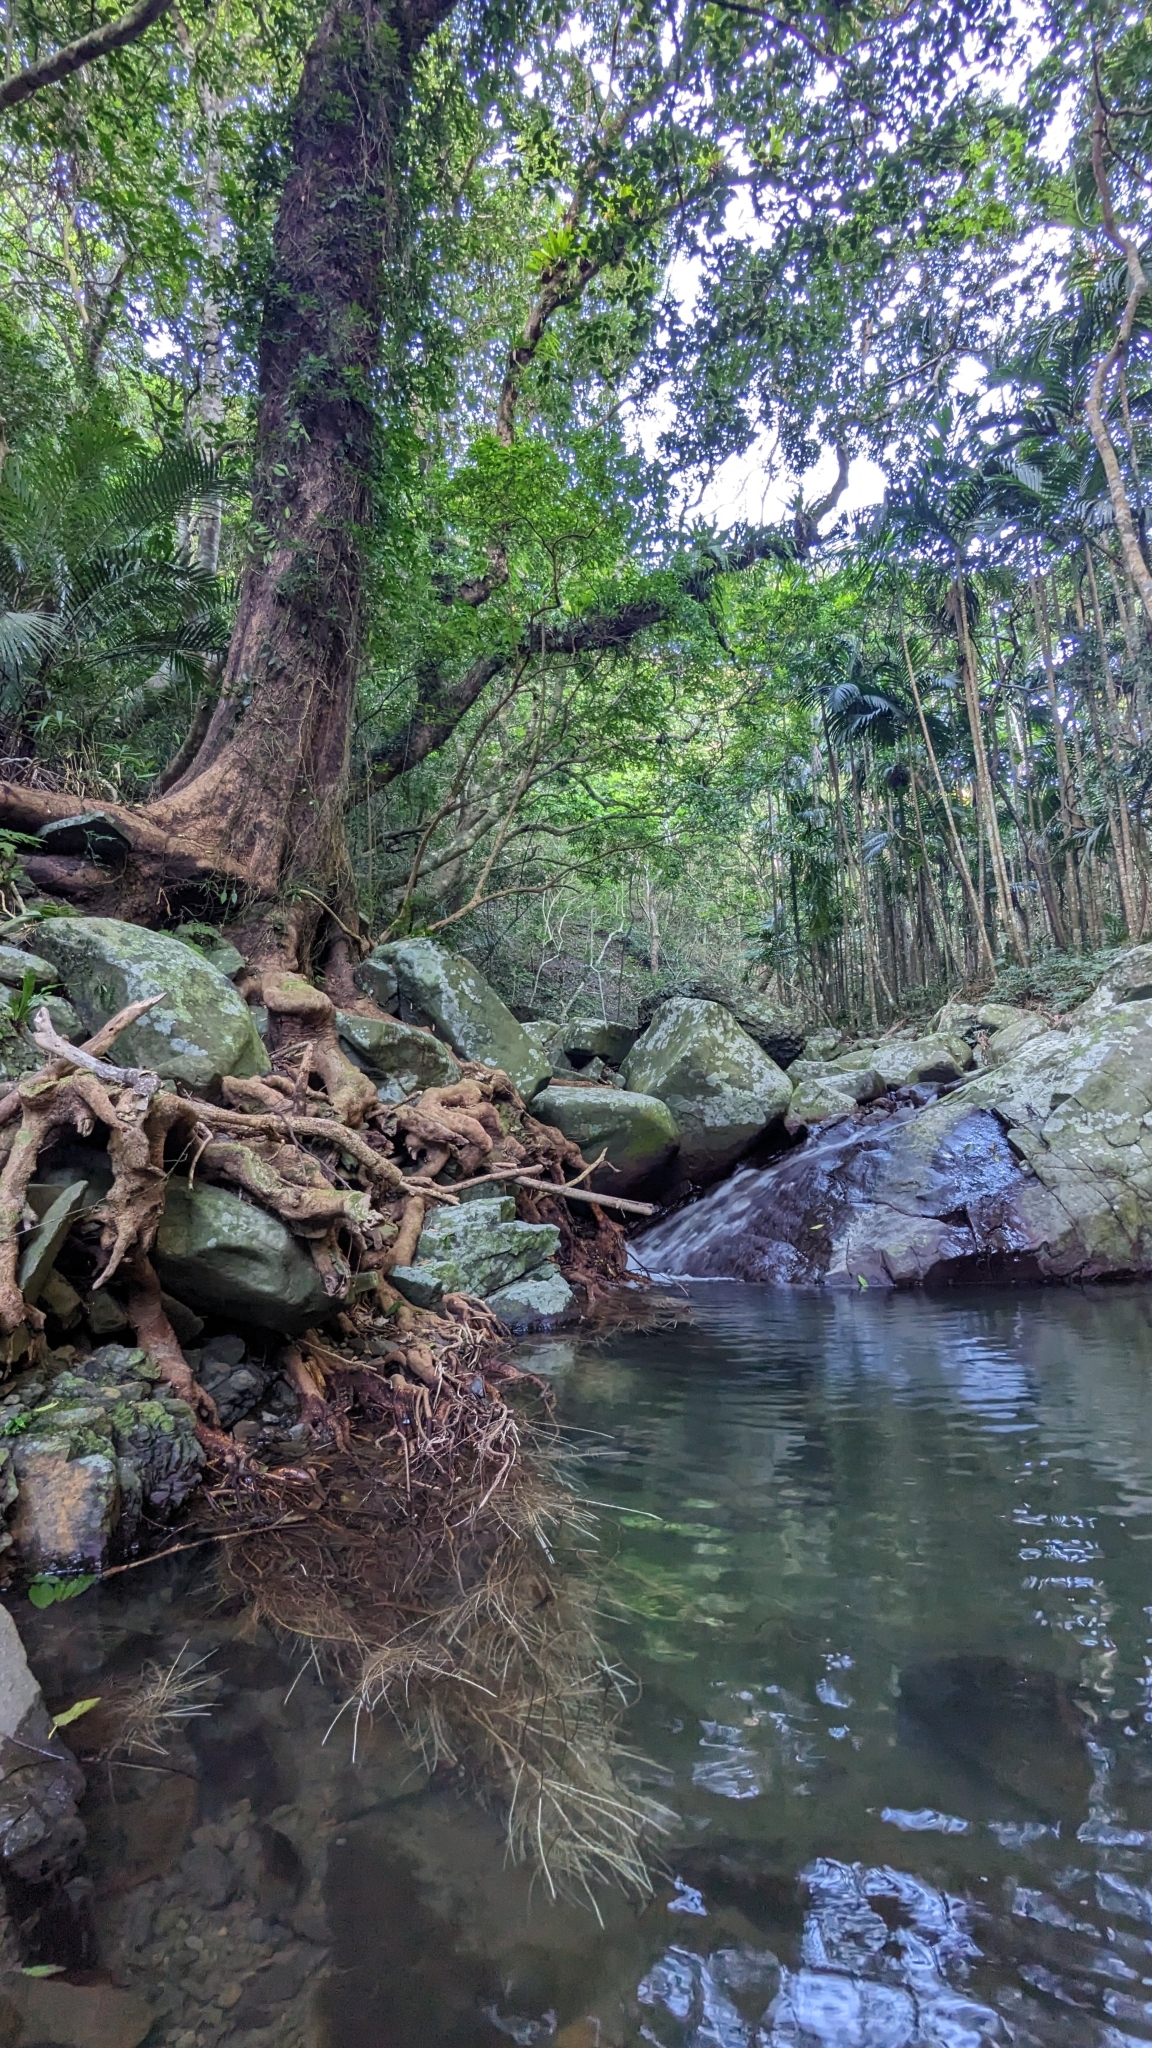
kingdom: Plantae
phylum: Tracheophyta
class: Magnoliopsida
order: Malpighiales
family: Phyllanthaceae
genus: Bischofia
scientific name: Bischofia javanica
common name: Javanese bishopwood
